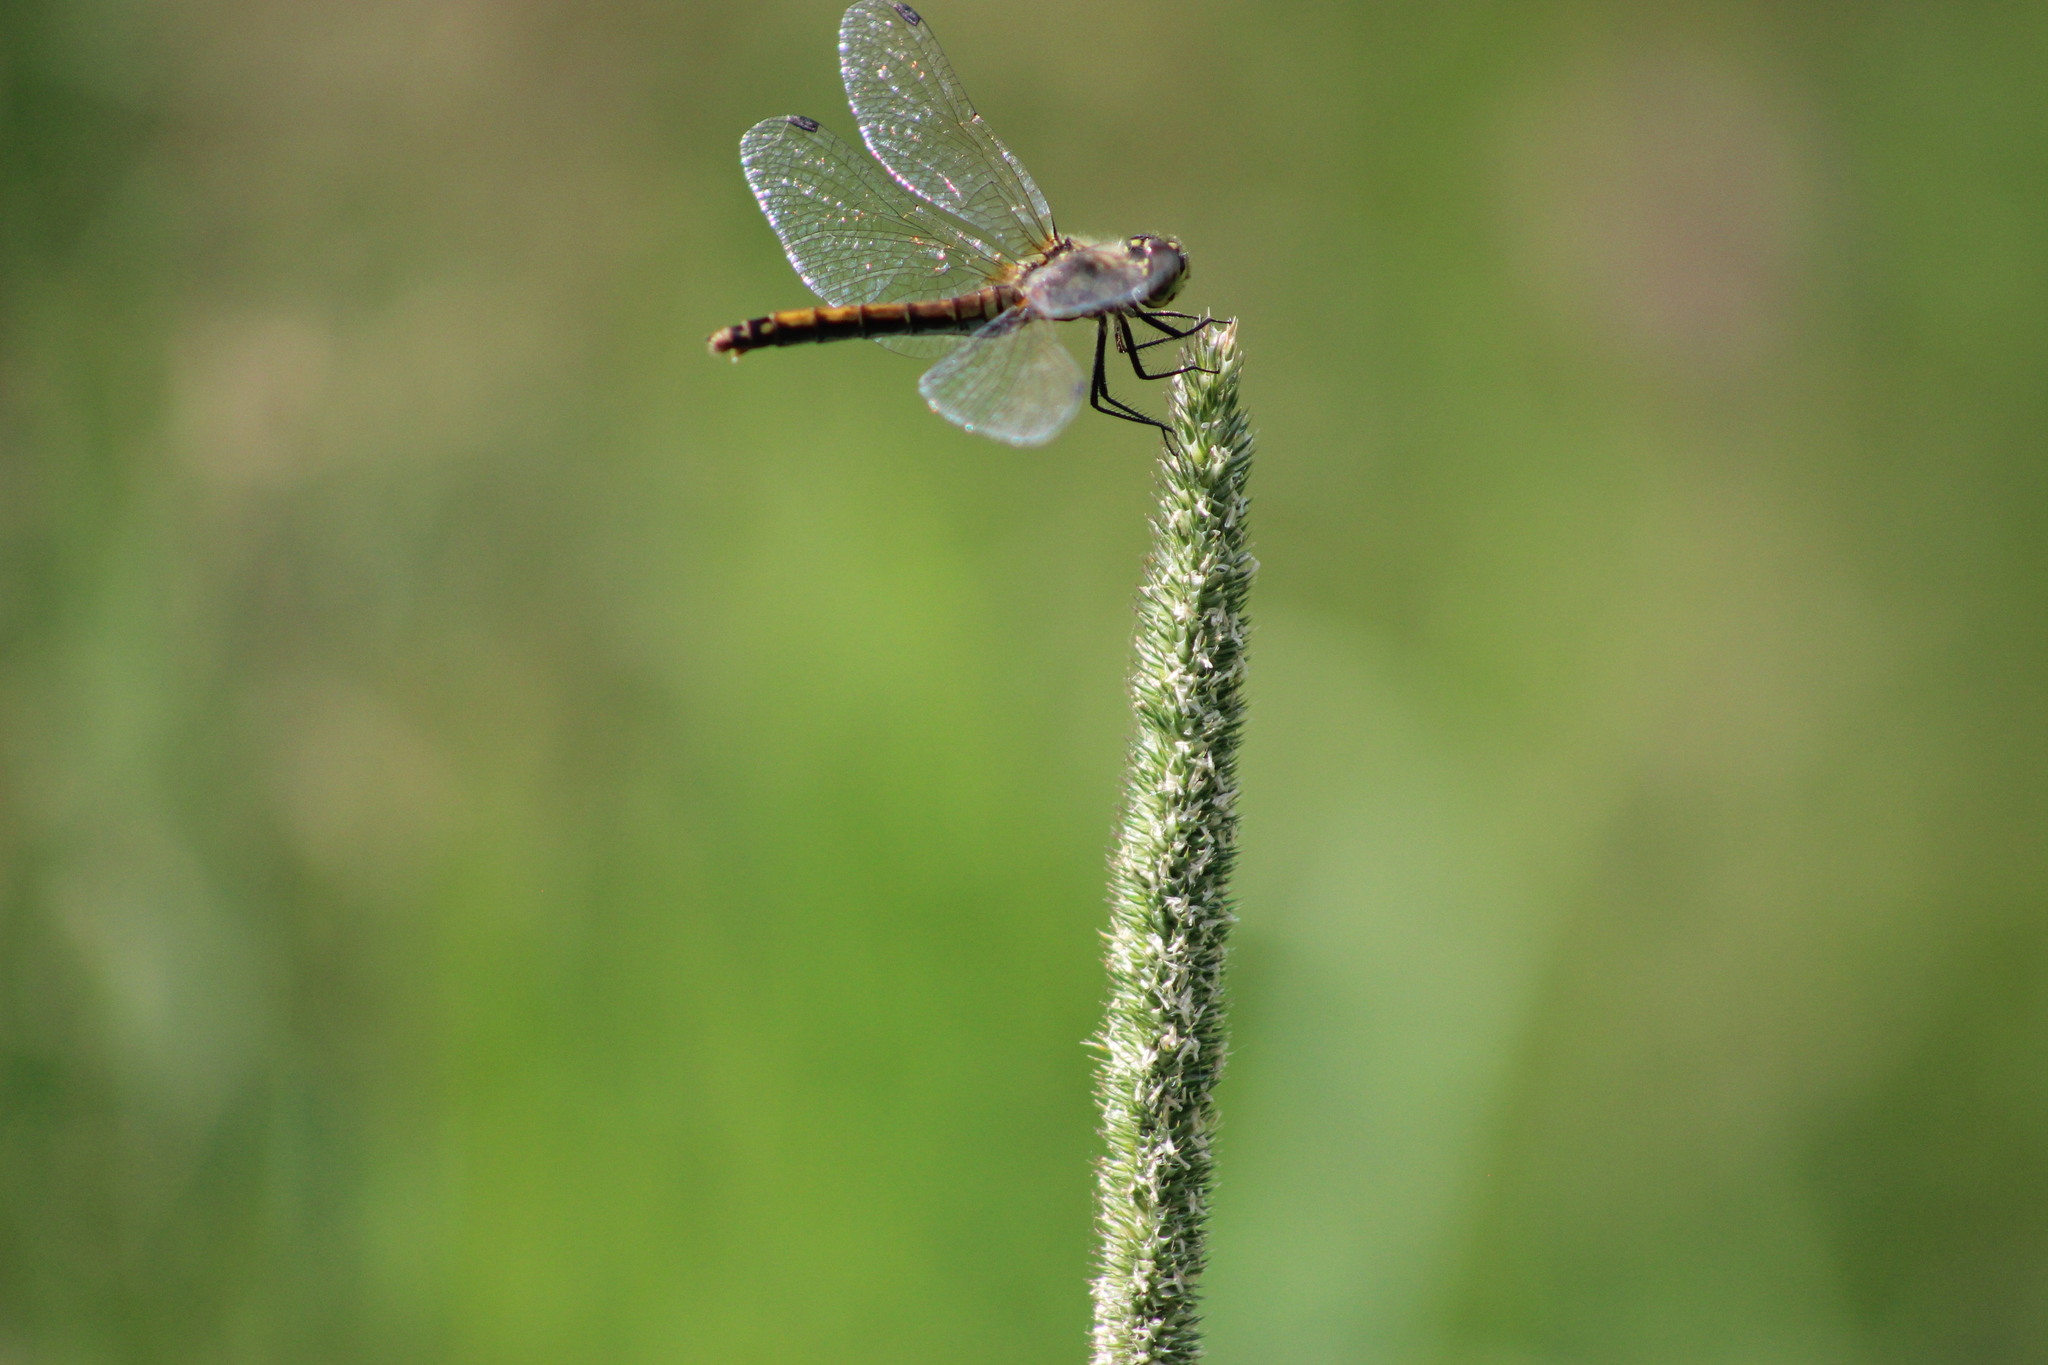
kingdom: Animalia
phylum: Arthropoda
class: Insecta
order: Odonata
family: Libellulidae
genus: Sympetrum
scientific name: Sympetrum danae
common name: Black darter
